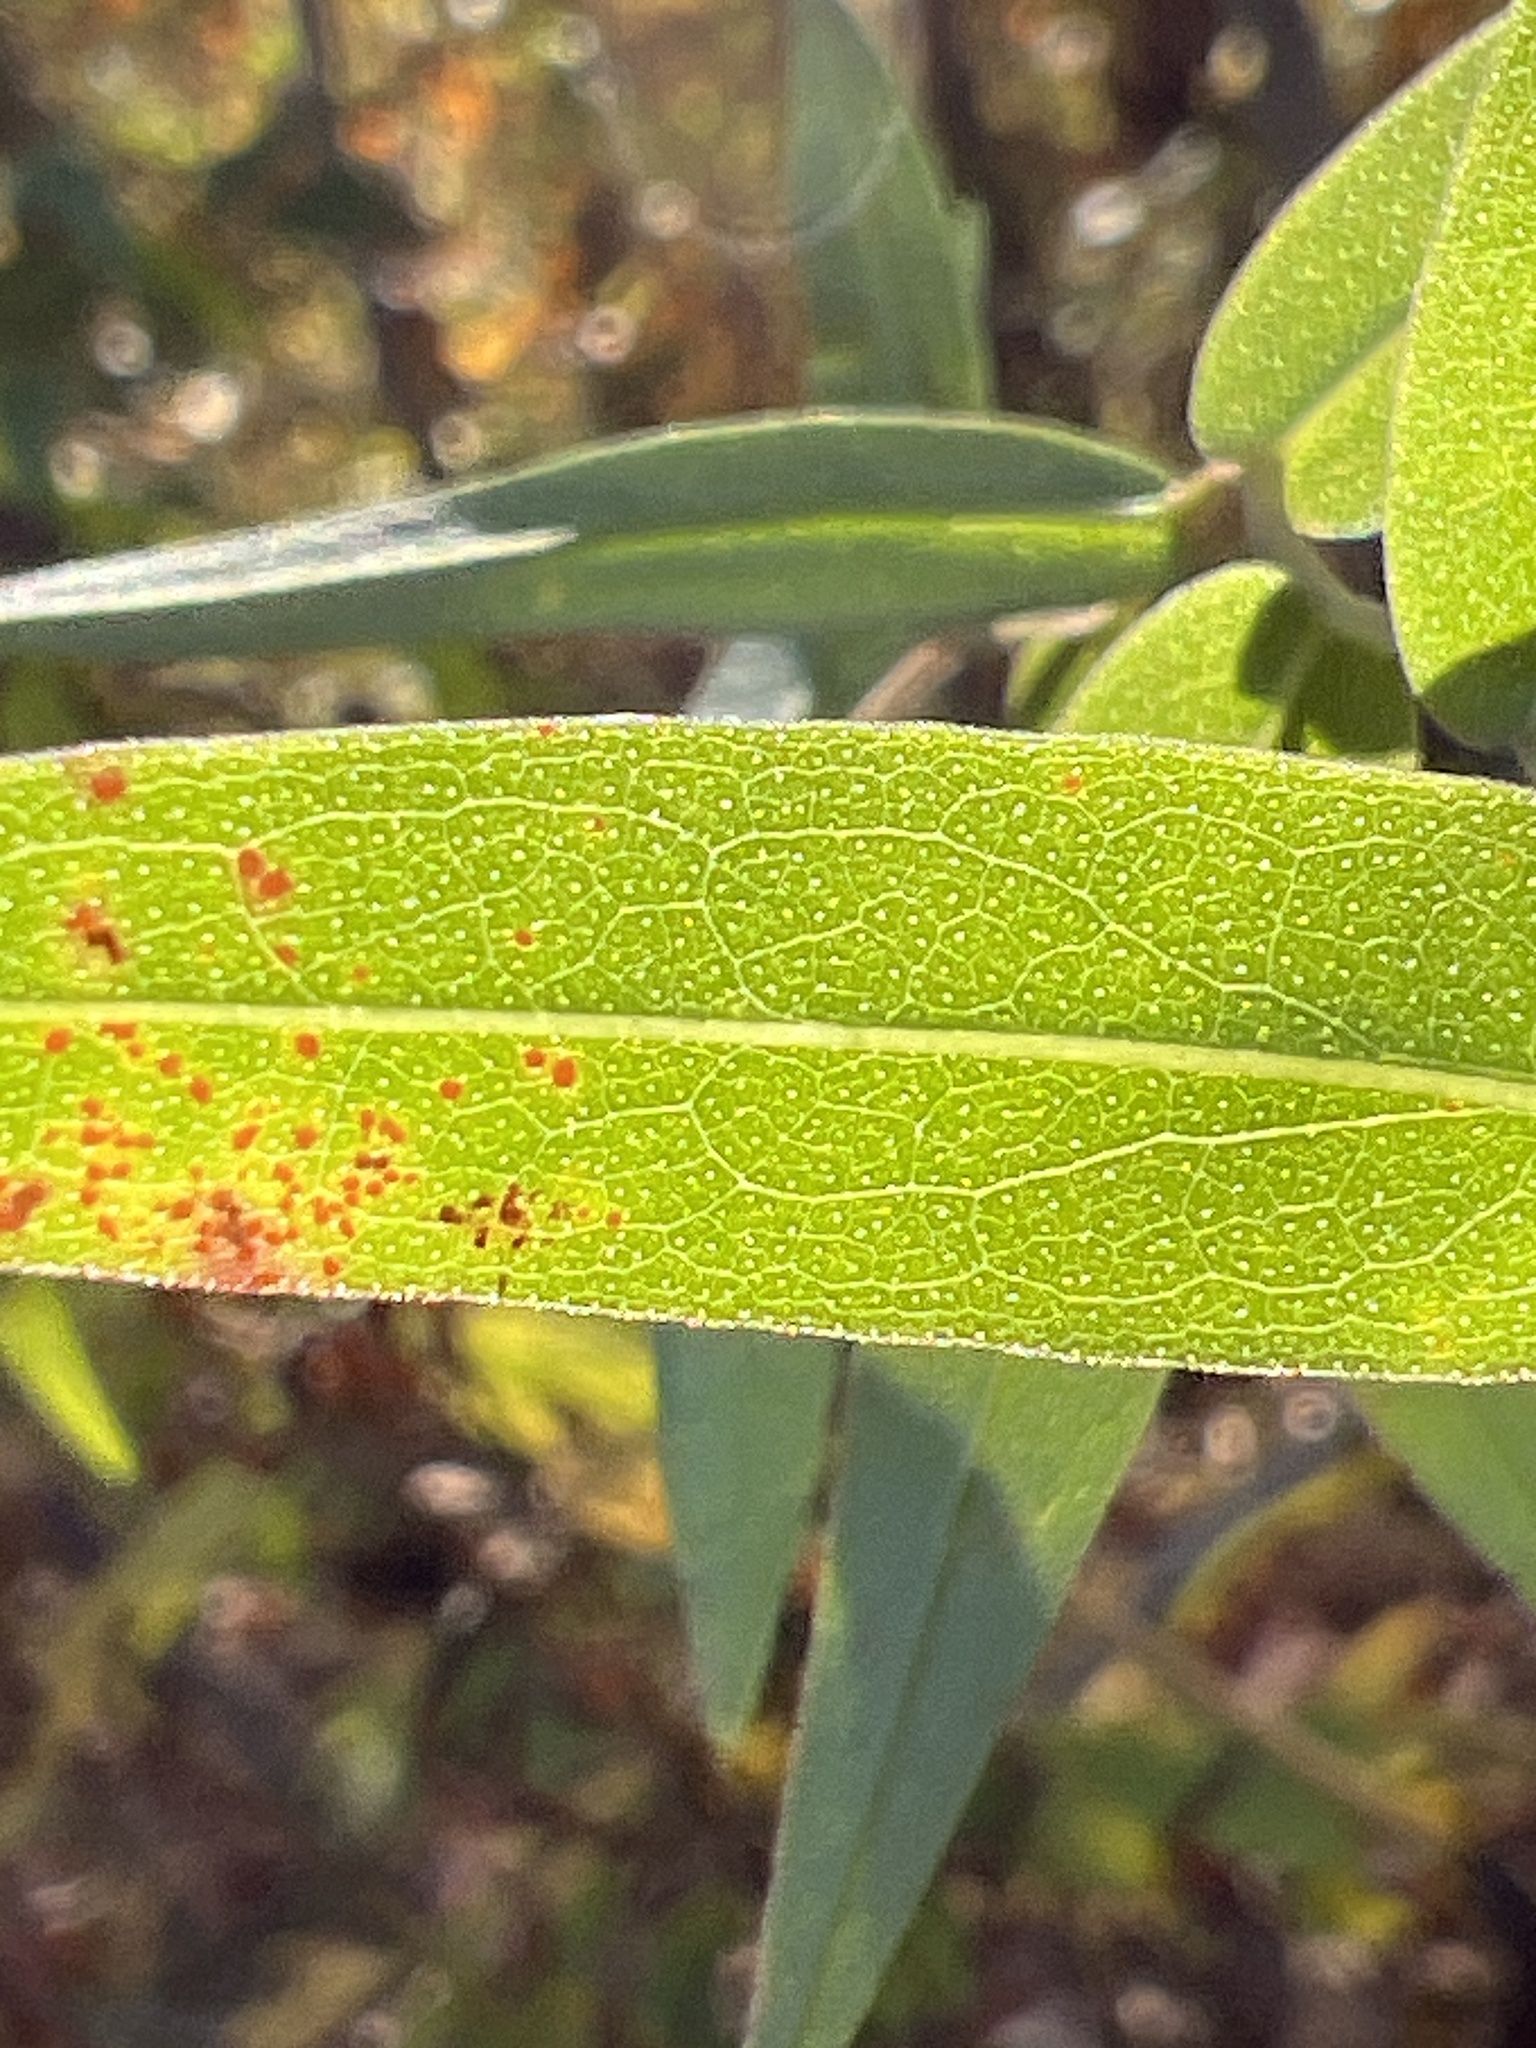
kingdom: Plantae
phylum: Tracheophyta
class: Magnoliopsida
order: Asterales
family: Asteraceae
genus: Solidago
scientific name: Solidago odora
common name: Anise-scented goldenrod
